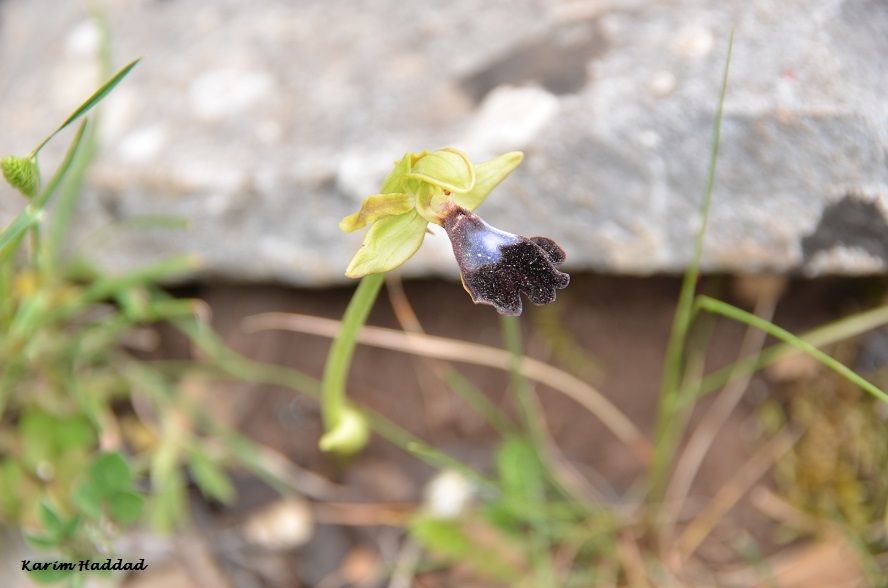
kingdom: Plantae
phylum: Tracheophyta
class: Liliopsida
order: Asparagales
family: Orchidaceae
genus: Ophrys
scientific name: Ophrys atlantica
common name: Atlantic ophrys
